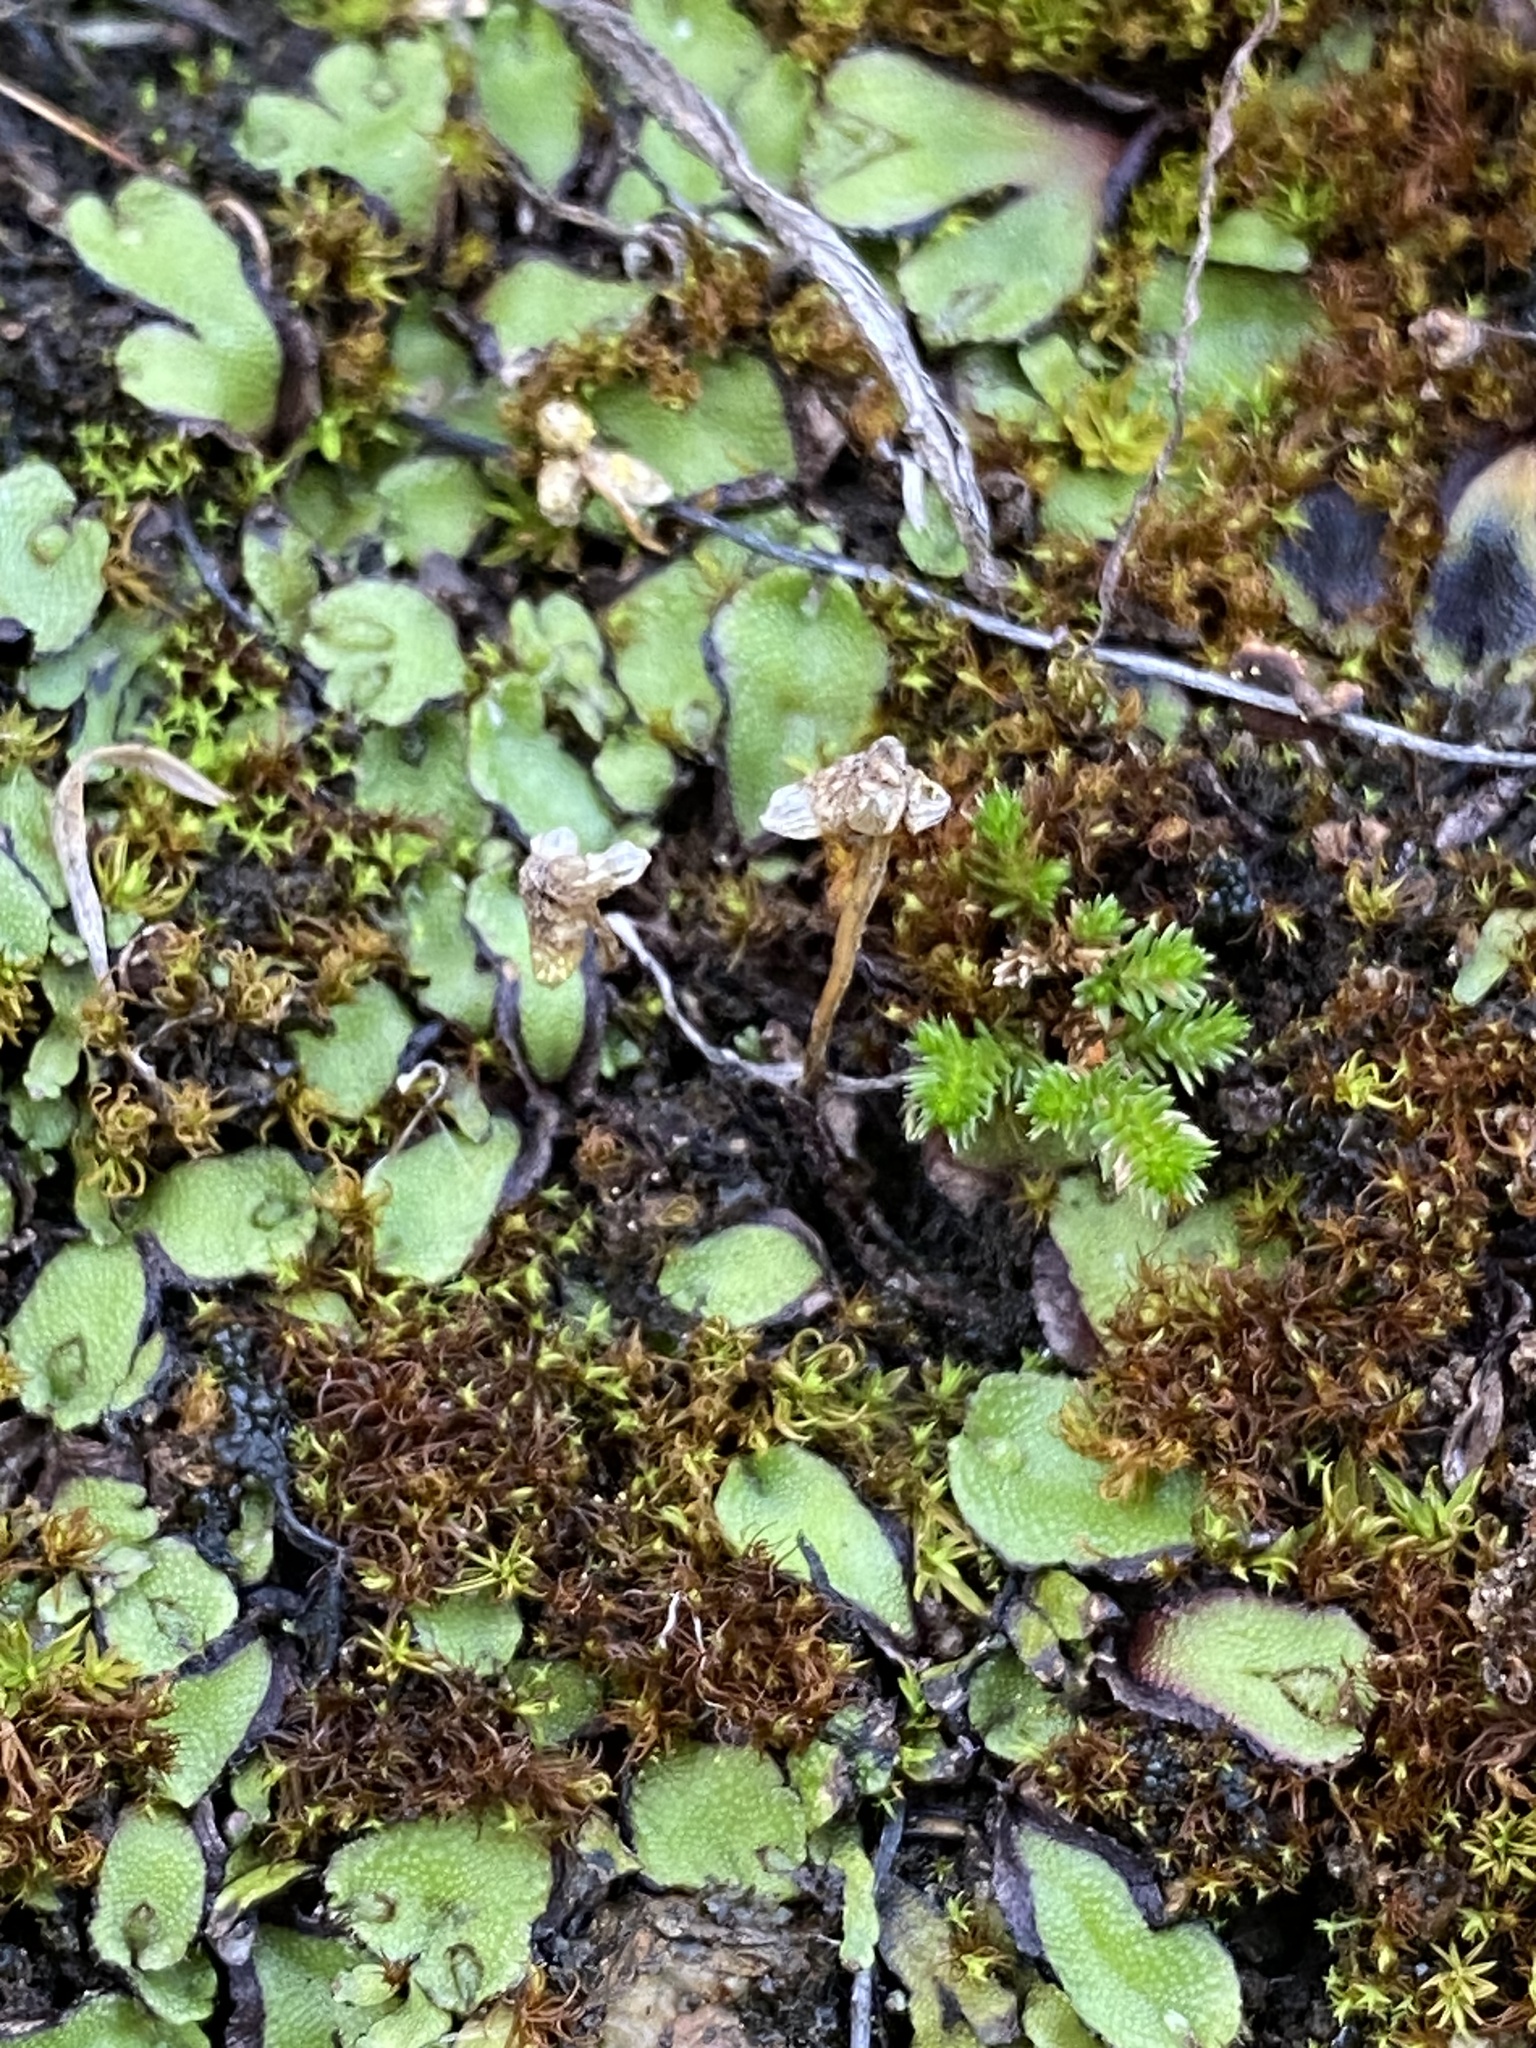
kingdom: Plantae
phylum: Marchantiophyta
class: Marchantiopsida
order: Marchantiales
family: Aytoniaceae
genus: Asterella
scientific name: Asterella californica
